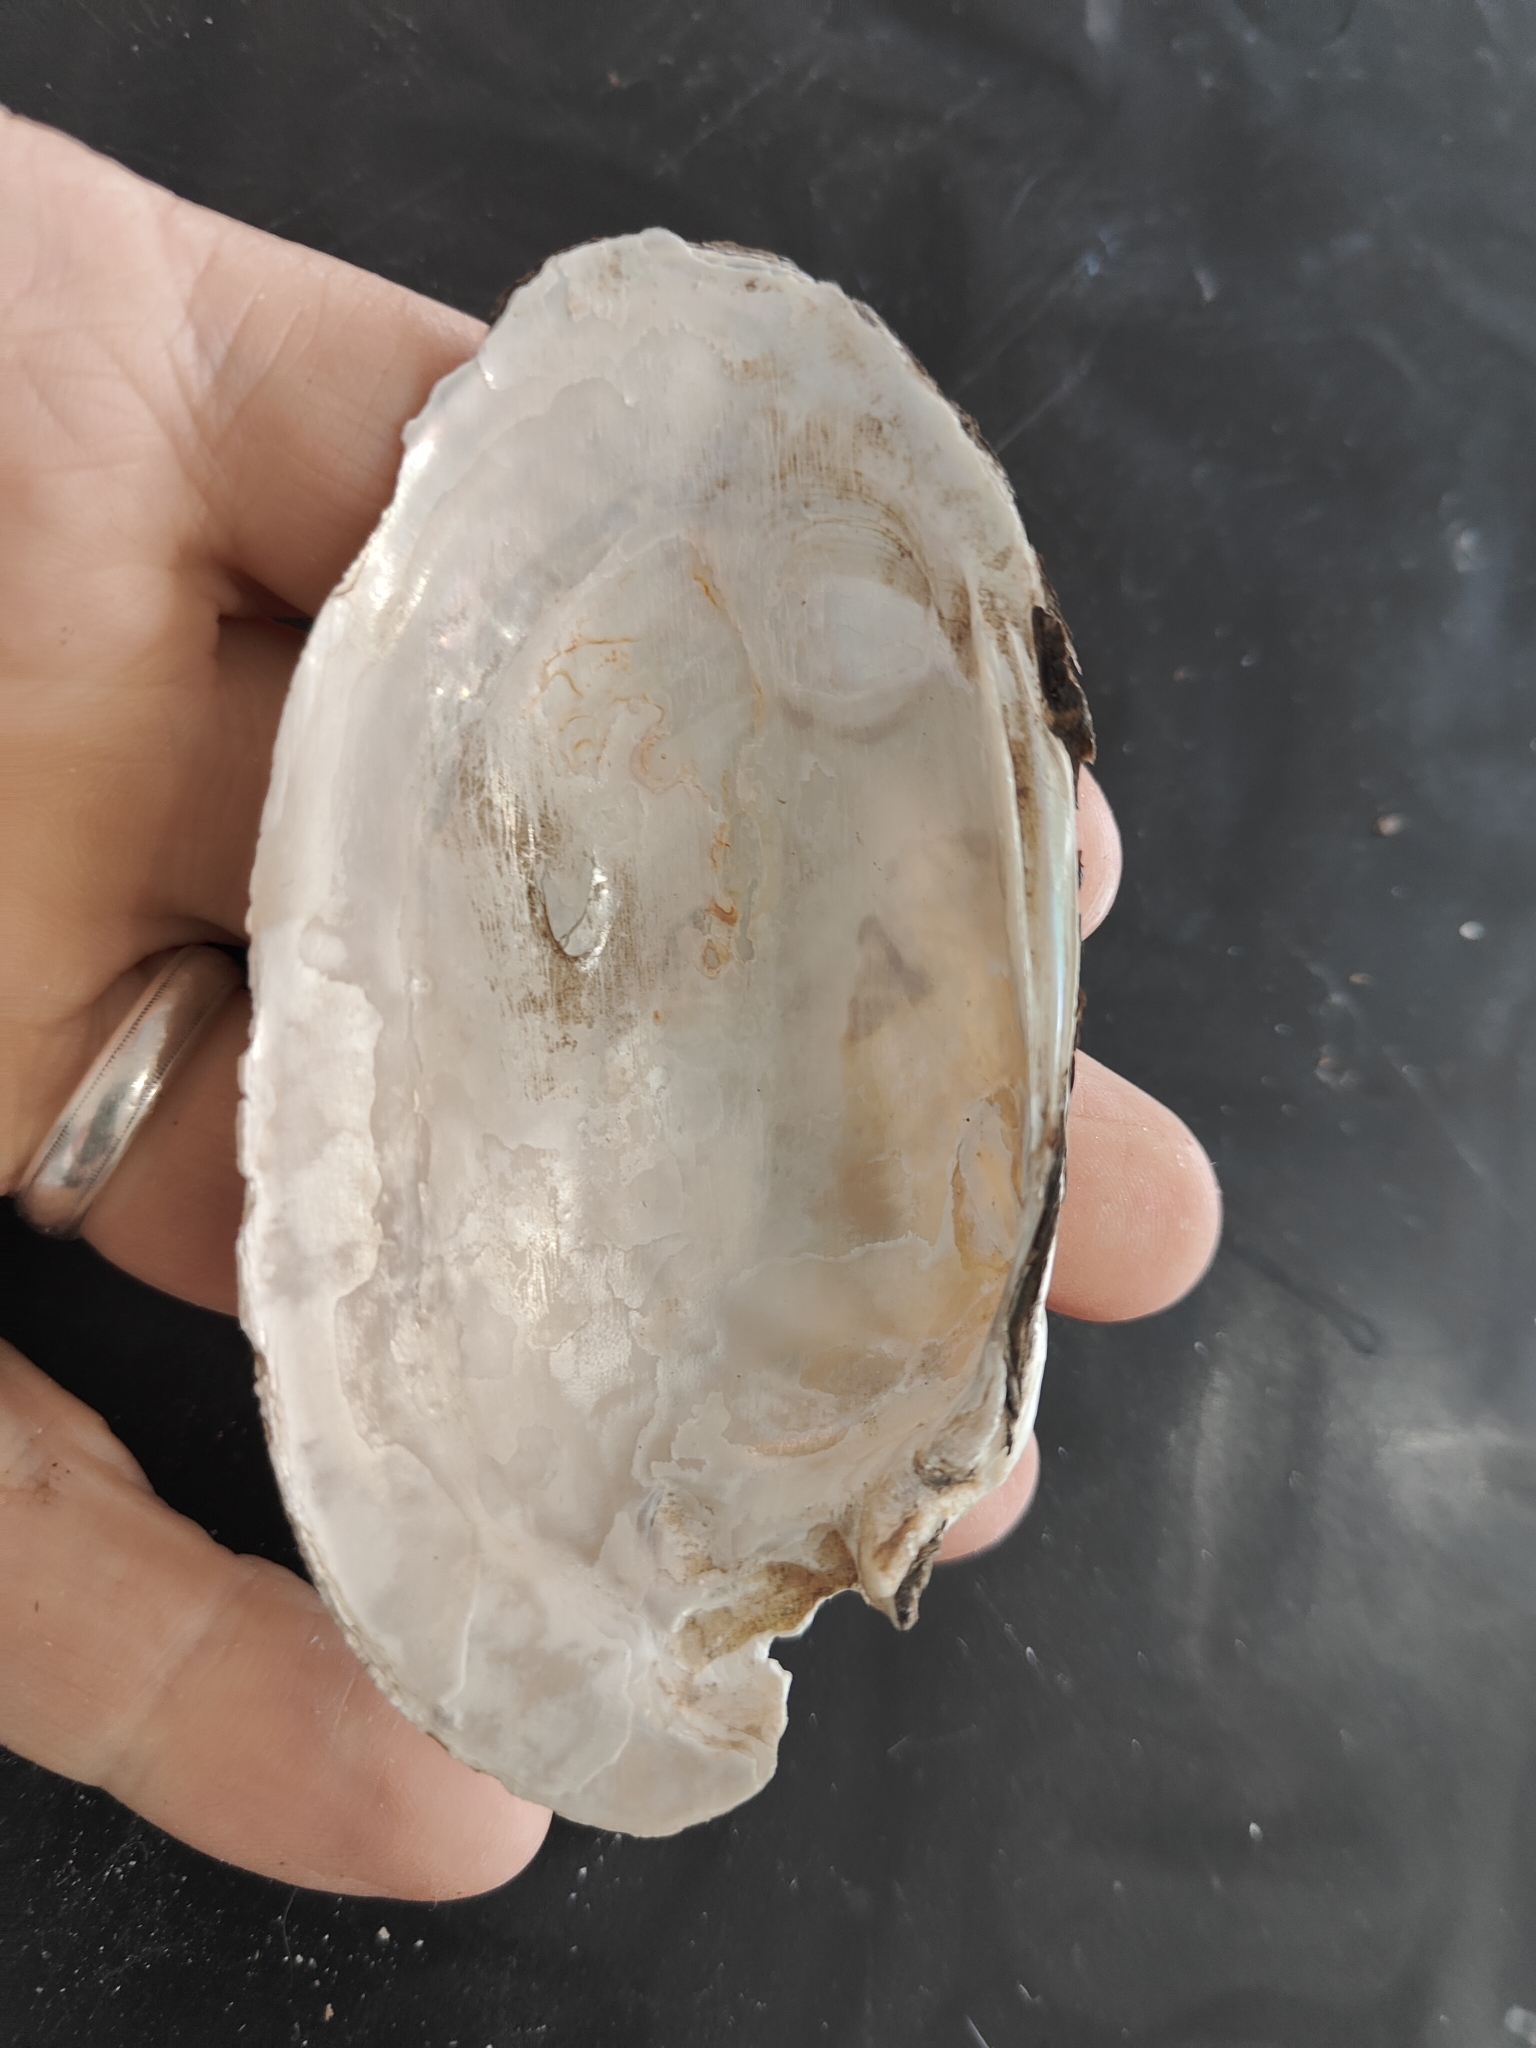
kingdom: Animalia
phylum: Mollusca
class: Bivalvia
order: Unionida
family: Unionidae
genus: Lampsilis
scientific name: Lampsilis siliquoidea
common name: Fatmucket
